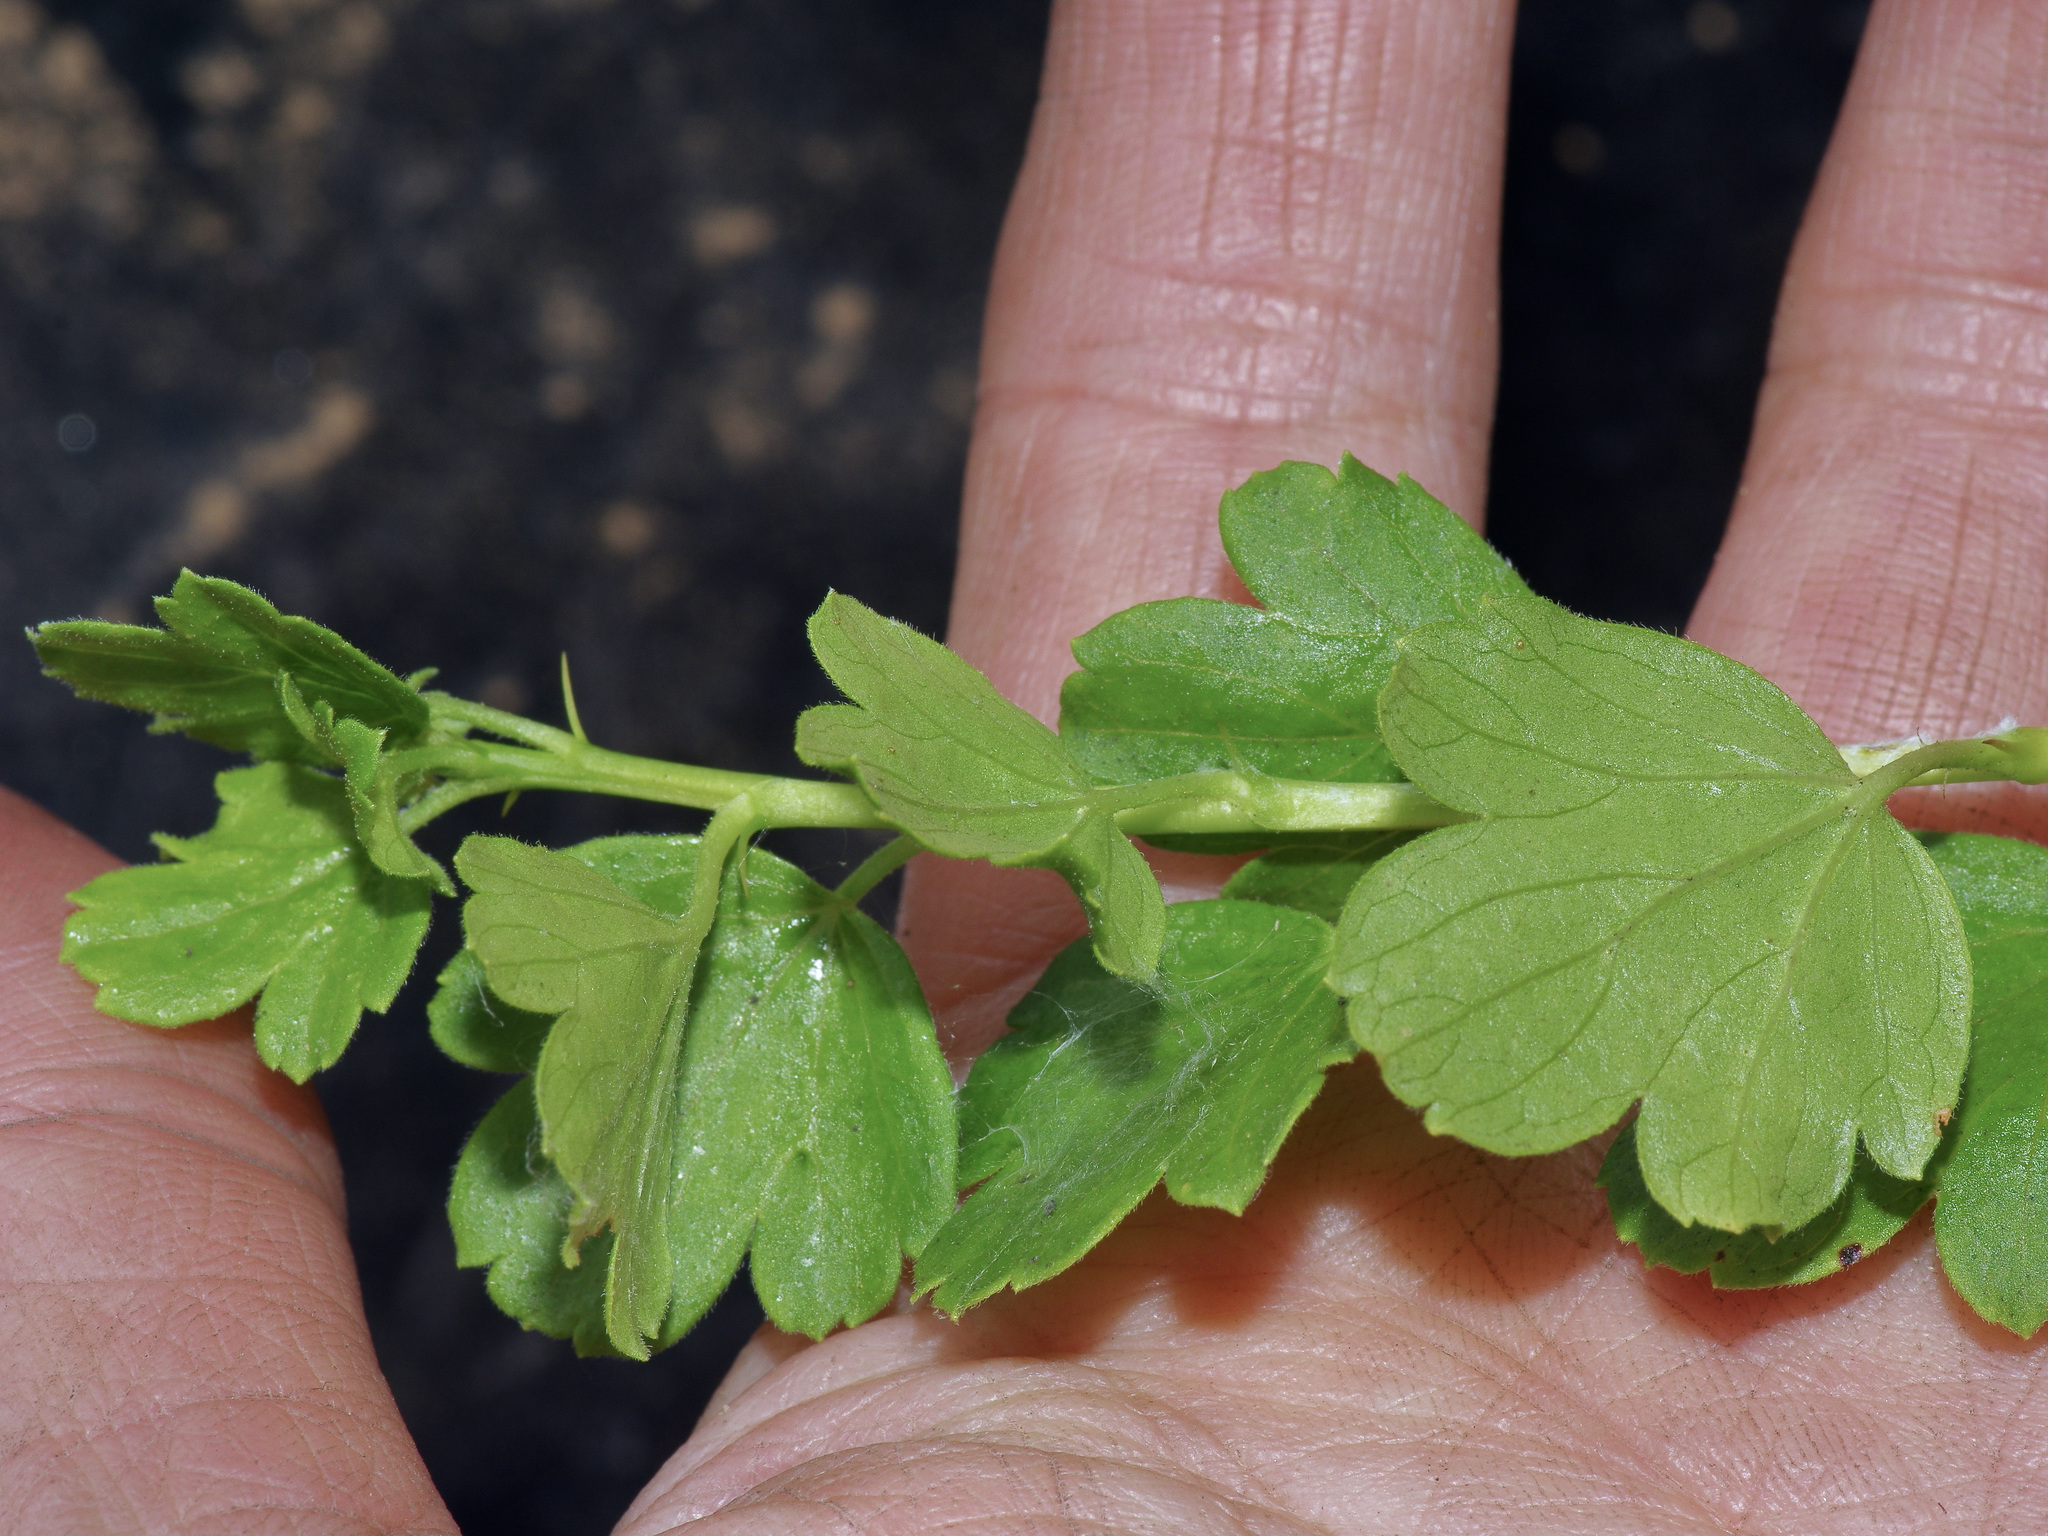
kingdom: Plantae
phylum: Tracheophyta
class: Magnoliopsida
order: Saxifragales
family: Grossulariaceae
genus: Ribes
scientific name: Ribes curvatum
